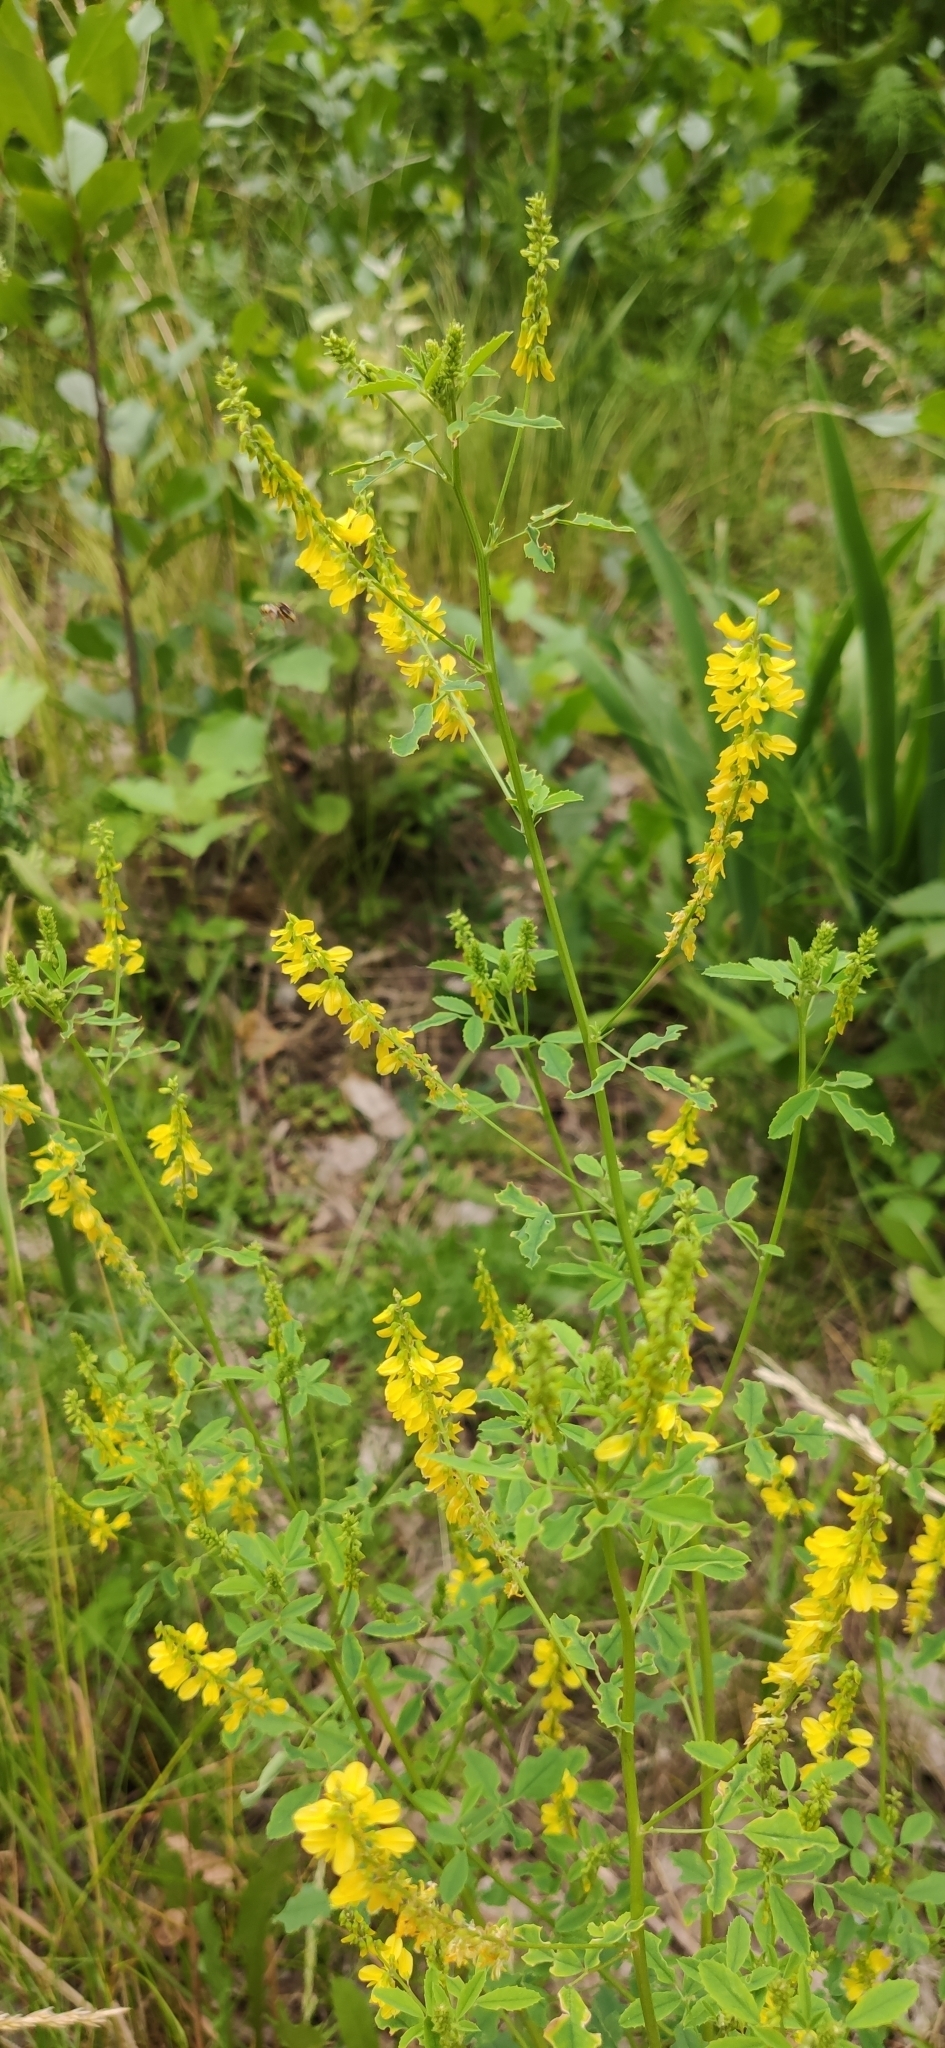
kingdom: Plantae
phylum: Tracheophyta
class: Magnoliopsida
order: Fabales
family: Fabaceae
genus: Melilotus
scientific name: Melilotus officinalis
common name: Sweetclover
